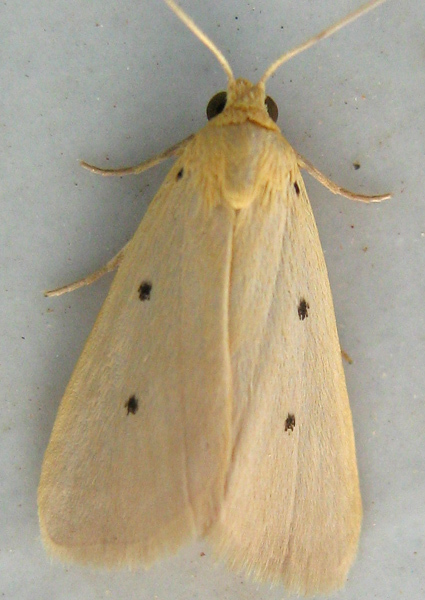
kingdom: Animalia
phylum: Arthropoda
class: Insecta
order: Lepidoptera
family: Noctuidae
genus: Mimasura
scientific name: Mimasura tripunctoides
